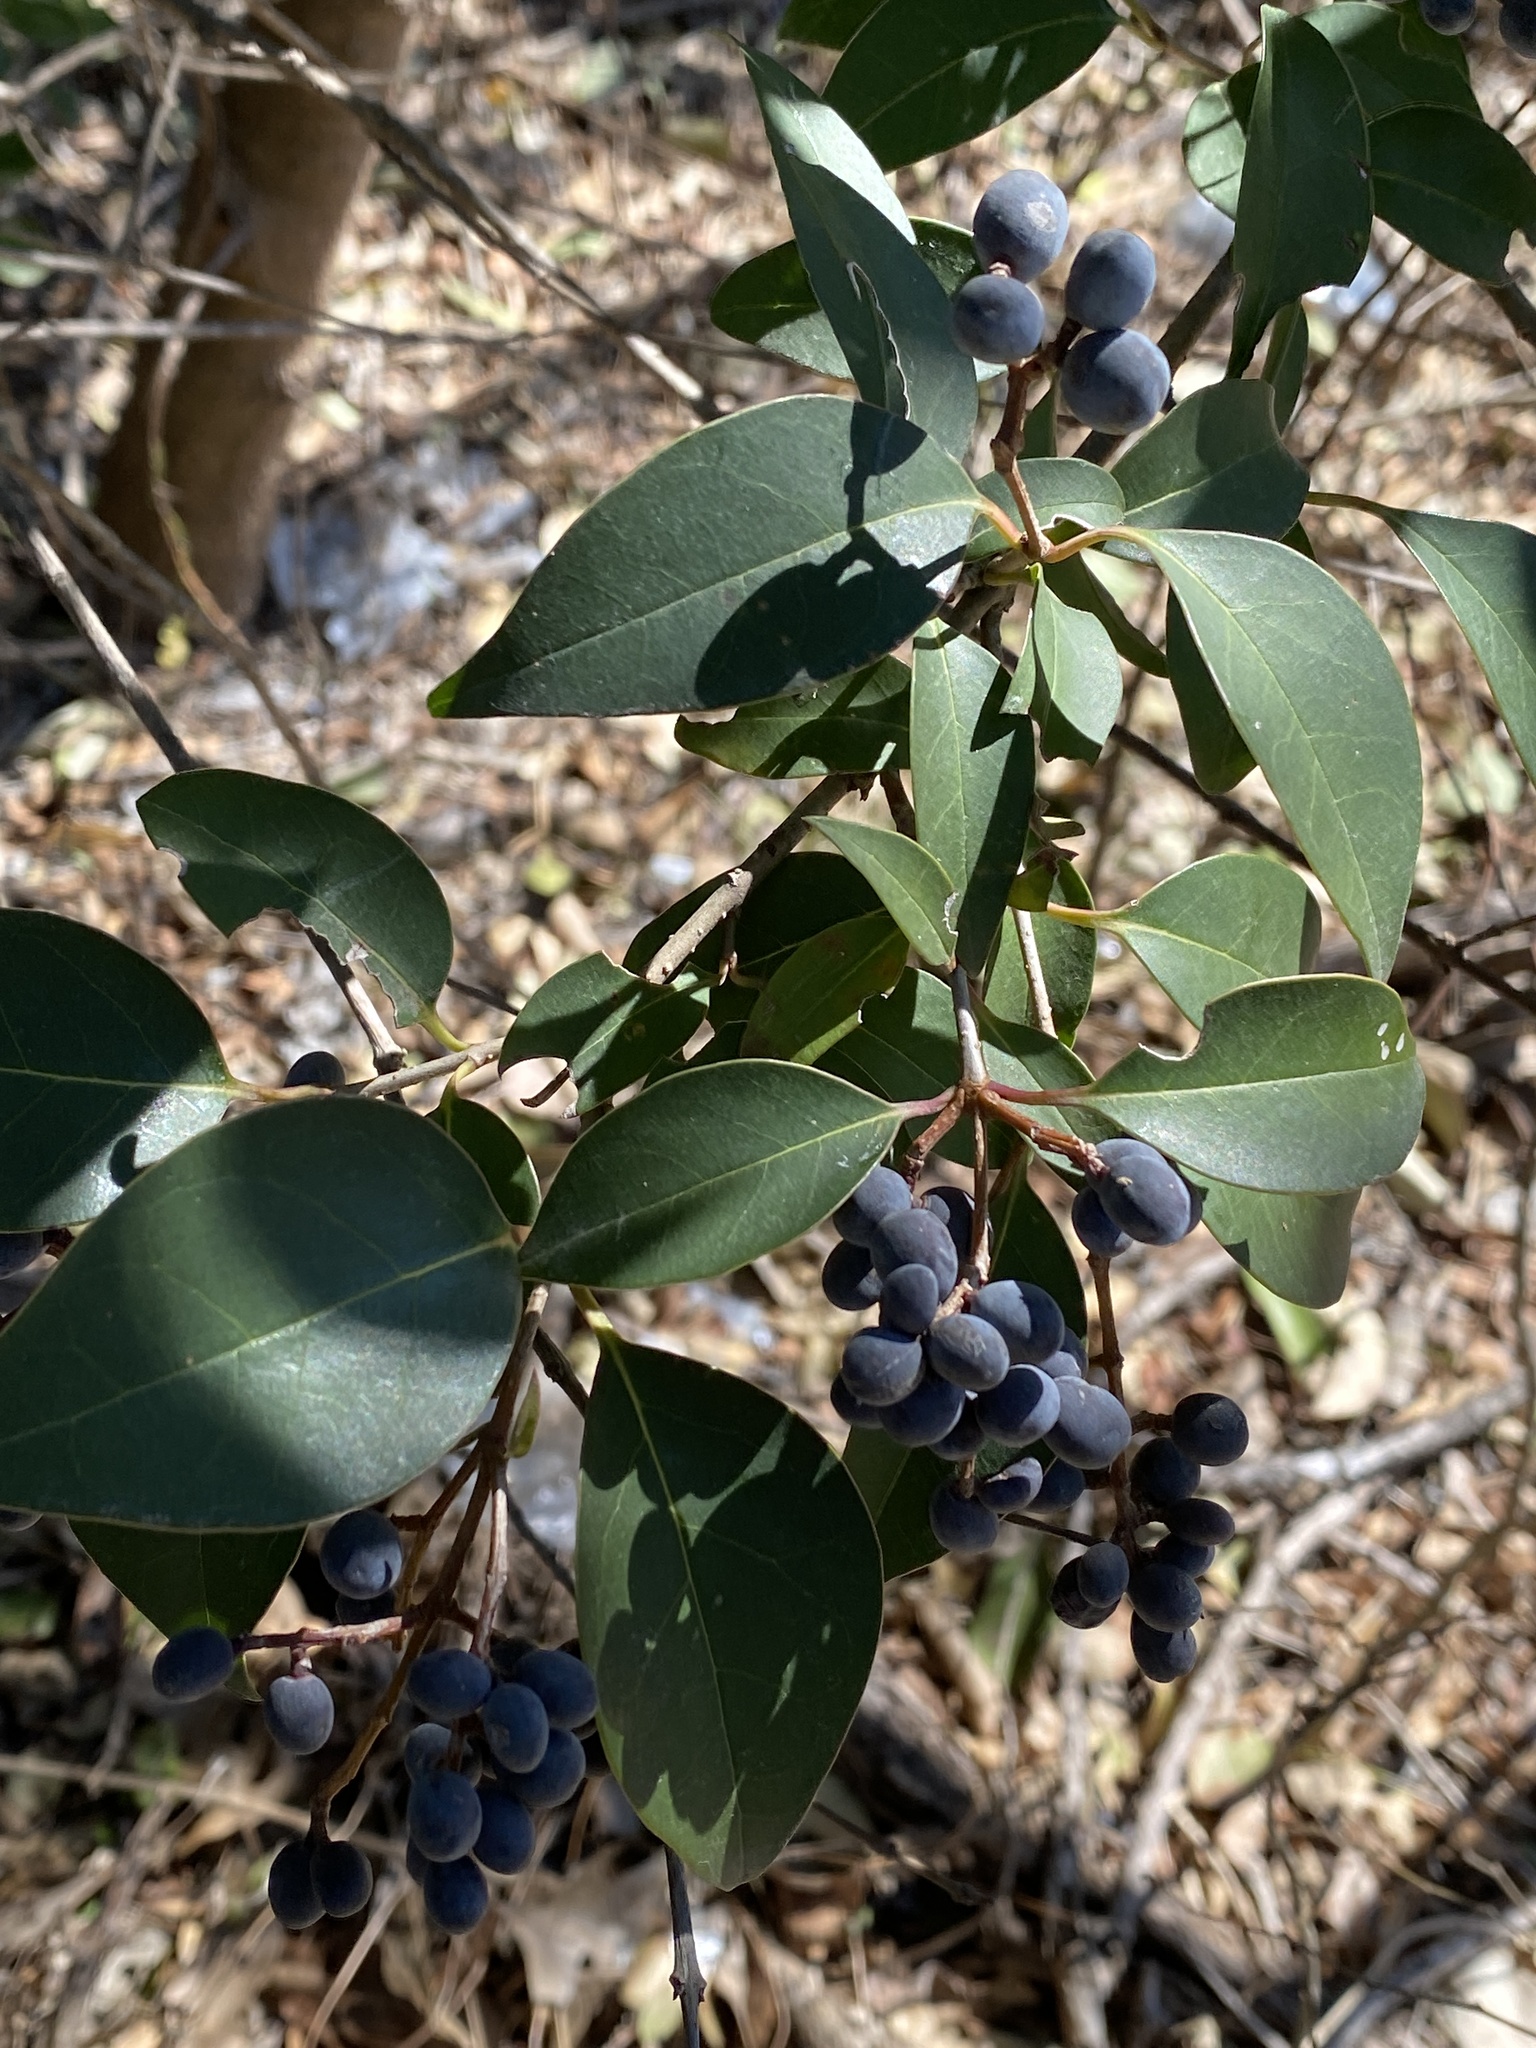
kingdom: Plantae
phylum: Tracheophyta
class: Magnoliopsida
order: Lamiales
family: Oleaceae
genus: Ligustrum
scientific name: Ligustrum lucidum
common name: Glossy privet
